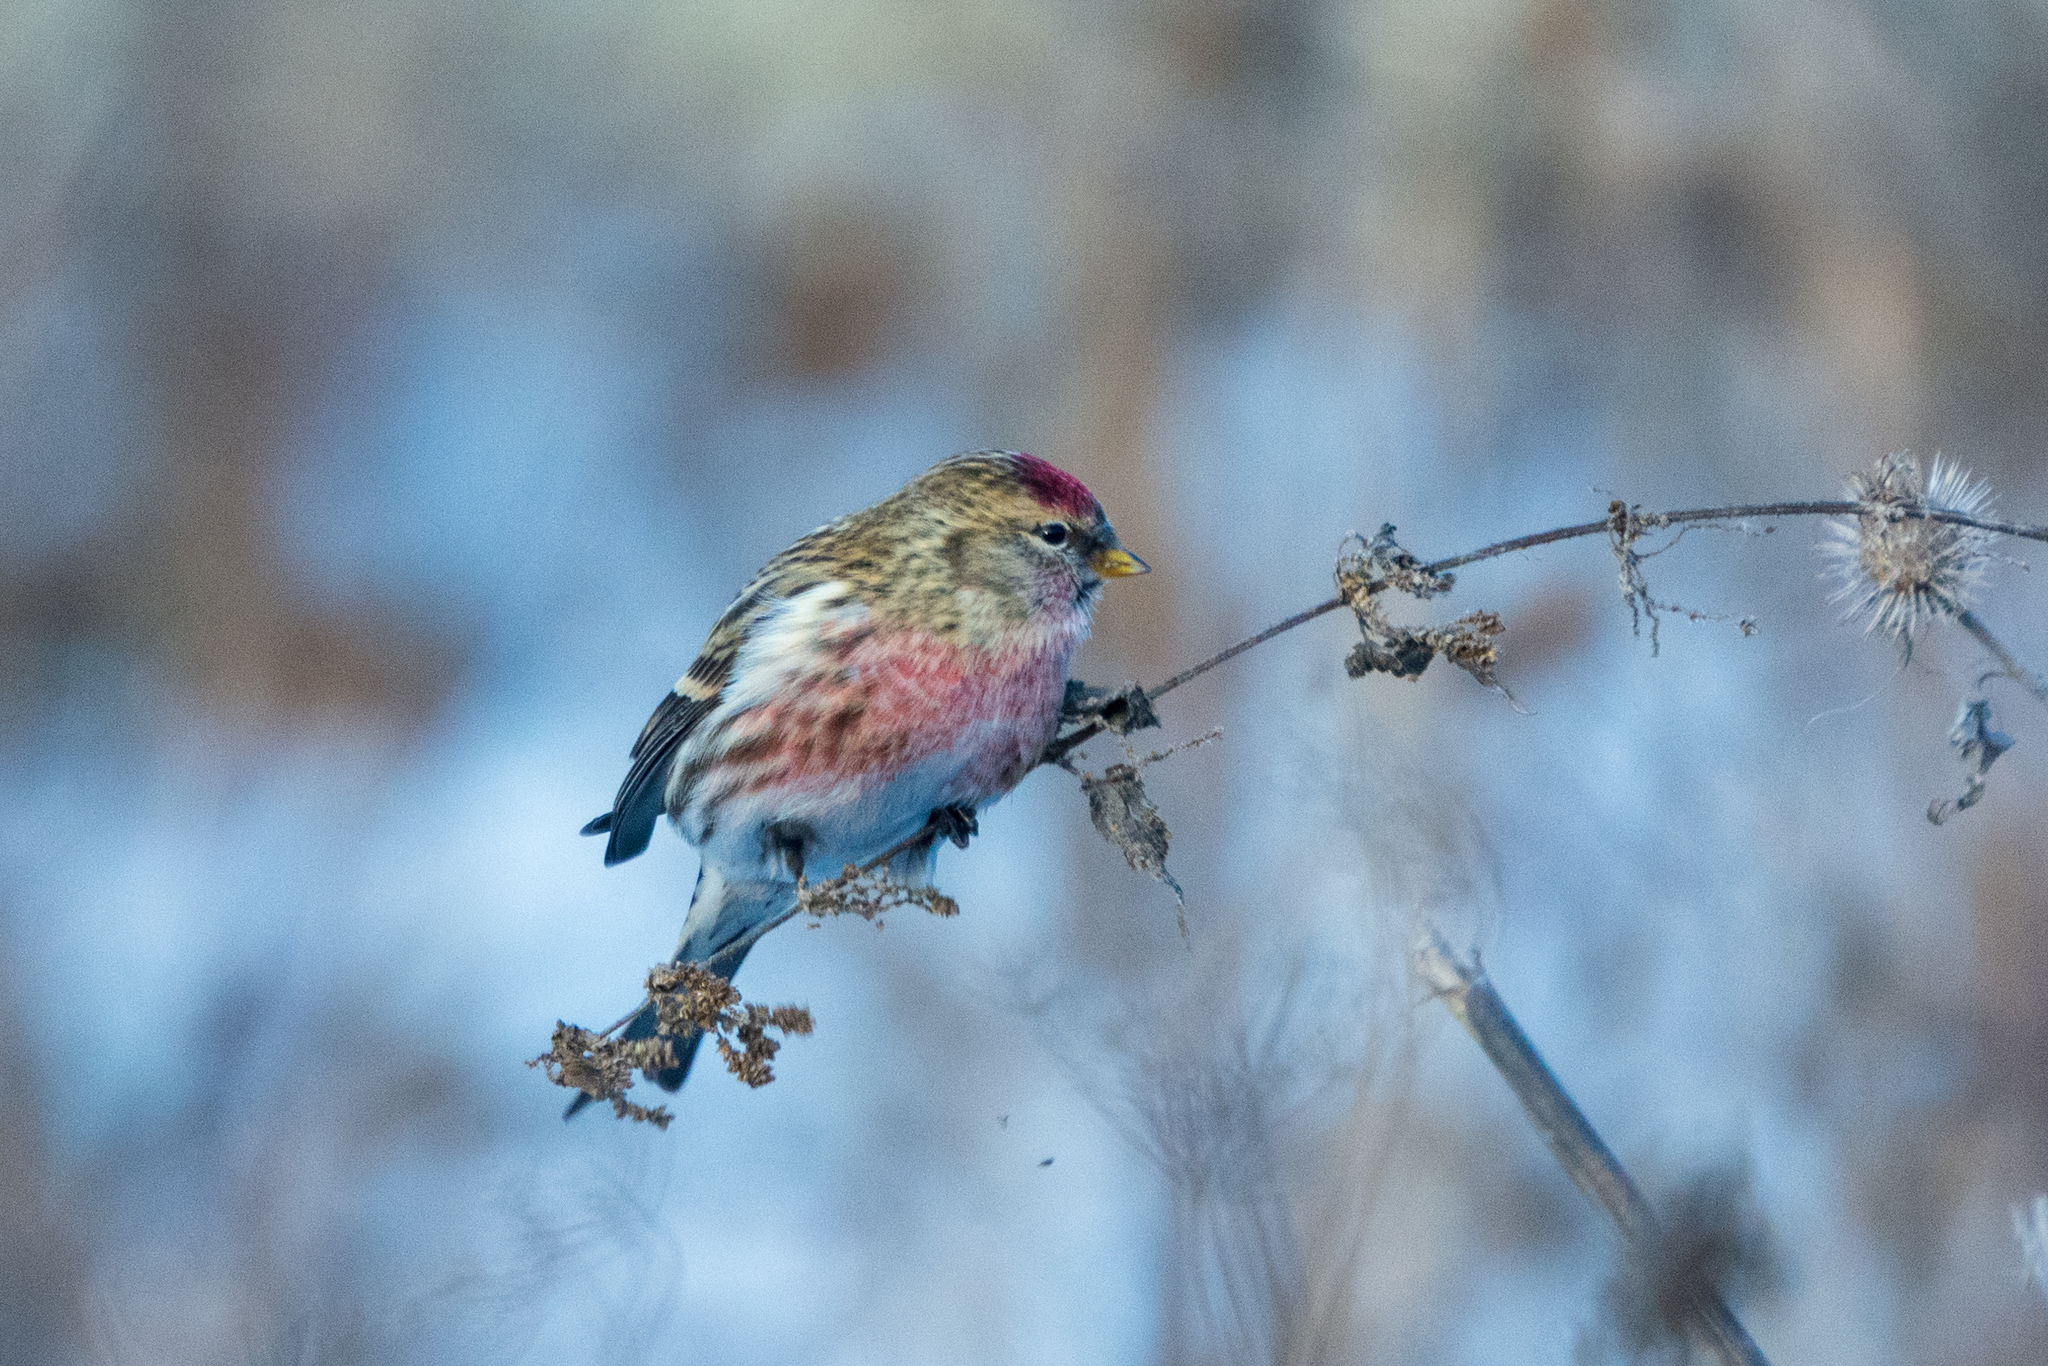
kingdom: Animalia
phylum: Chordata
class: Aves
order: Passeriformes
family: Fringillidae
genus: Acanthis
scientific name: Acanthis flammea
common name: Common redpoll
